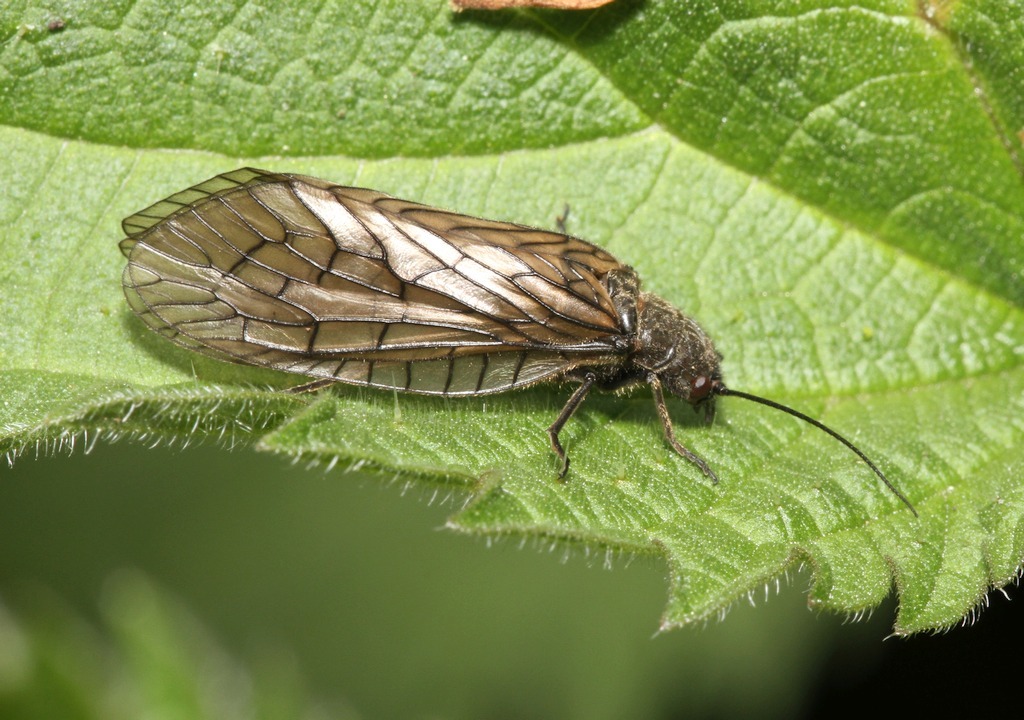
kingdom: Animalia
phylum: Arthropoda
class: Insecta
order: Megaloptera
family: Sialidae
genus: Sialis
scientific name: Sialis
